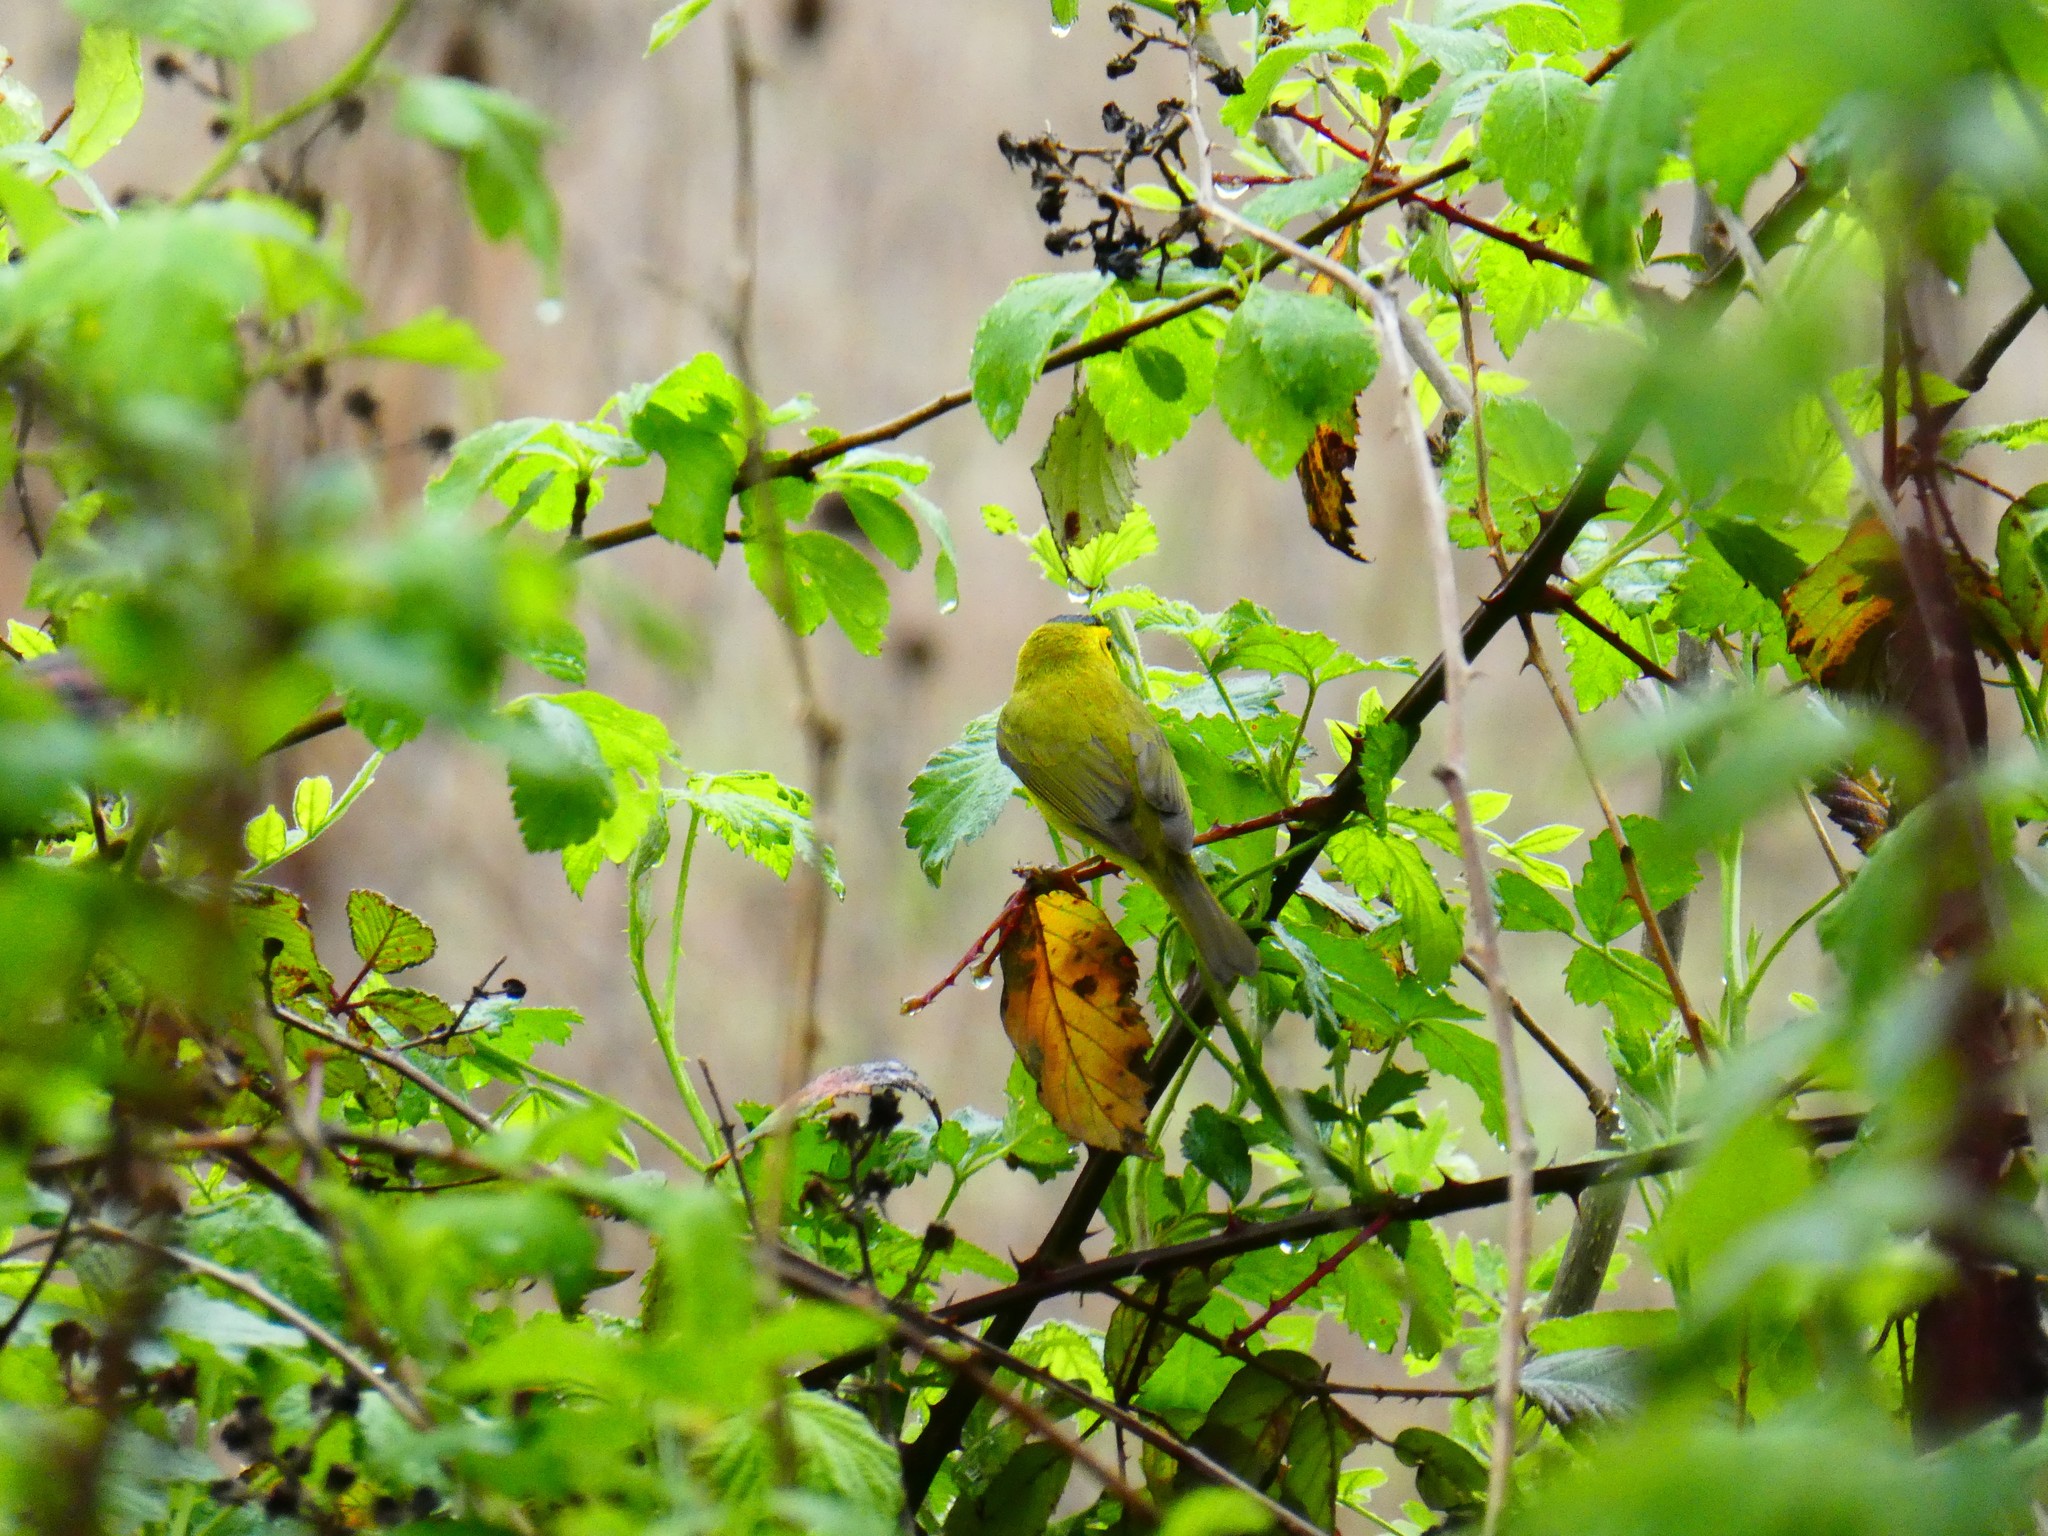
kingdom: Animalia
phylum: Chordata
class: Aves
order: Passeriformes
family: Parulidae
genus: Cardellina
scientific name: Cardellina pusilla
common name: Wilson's warbler
